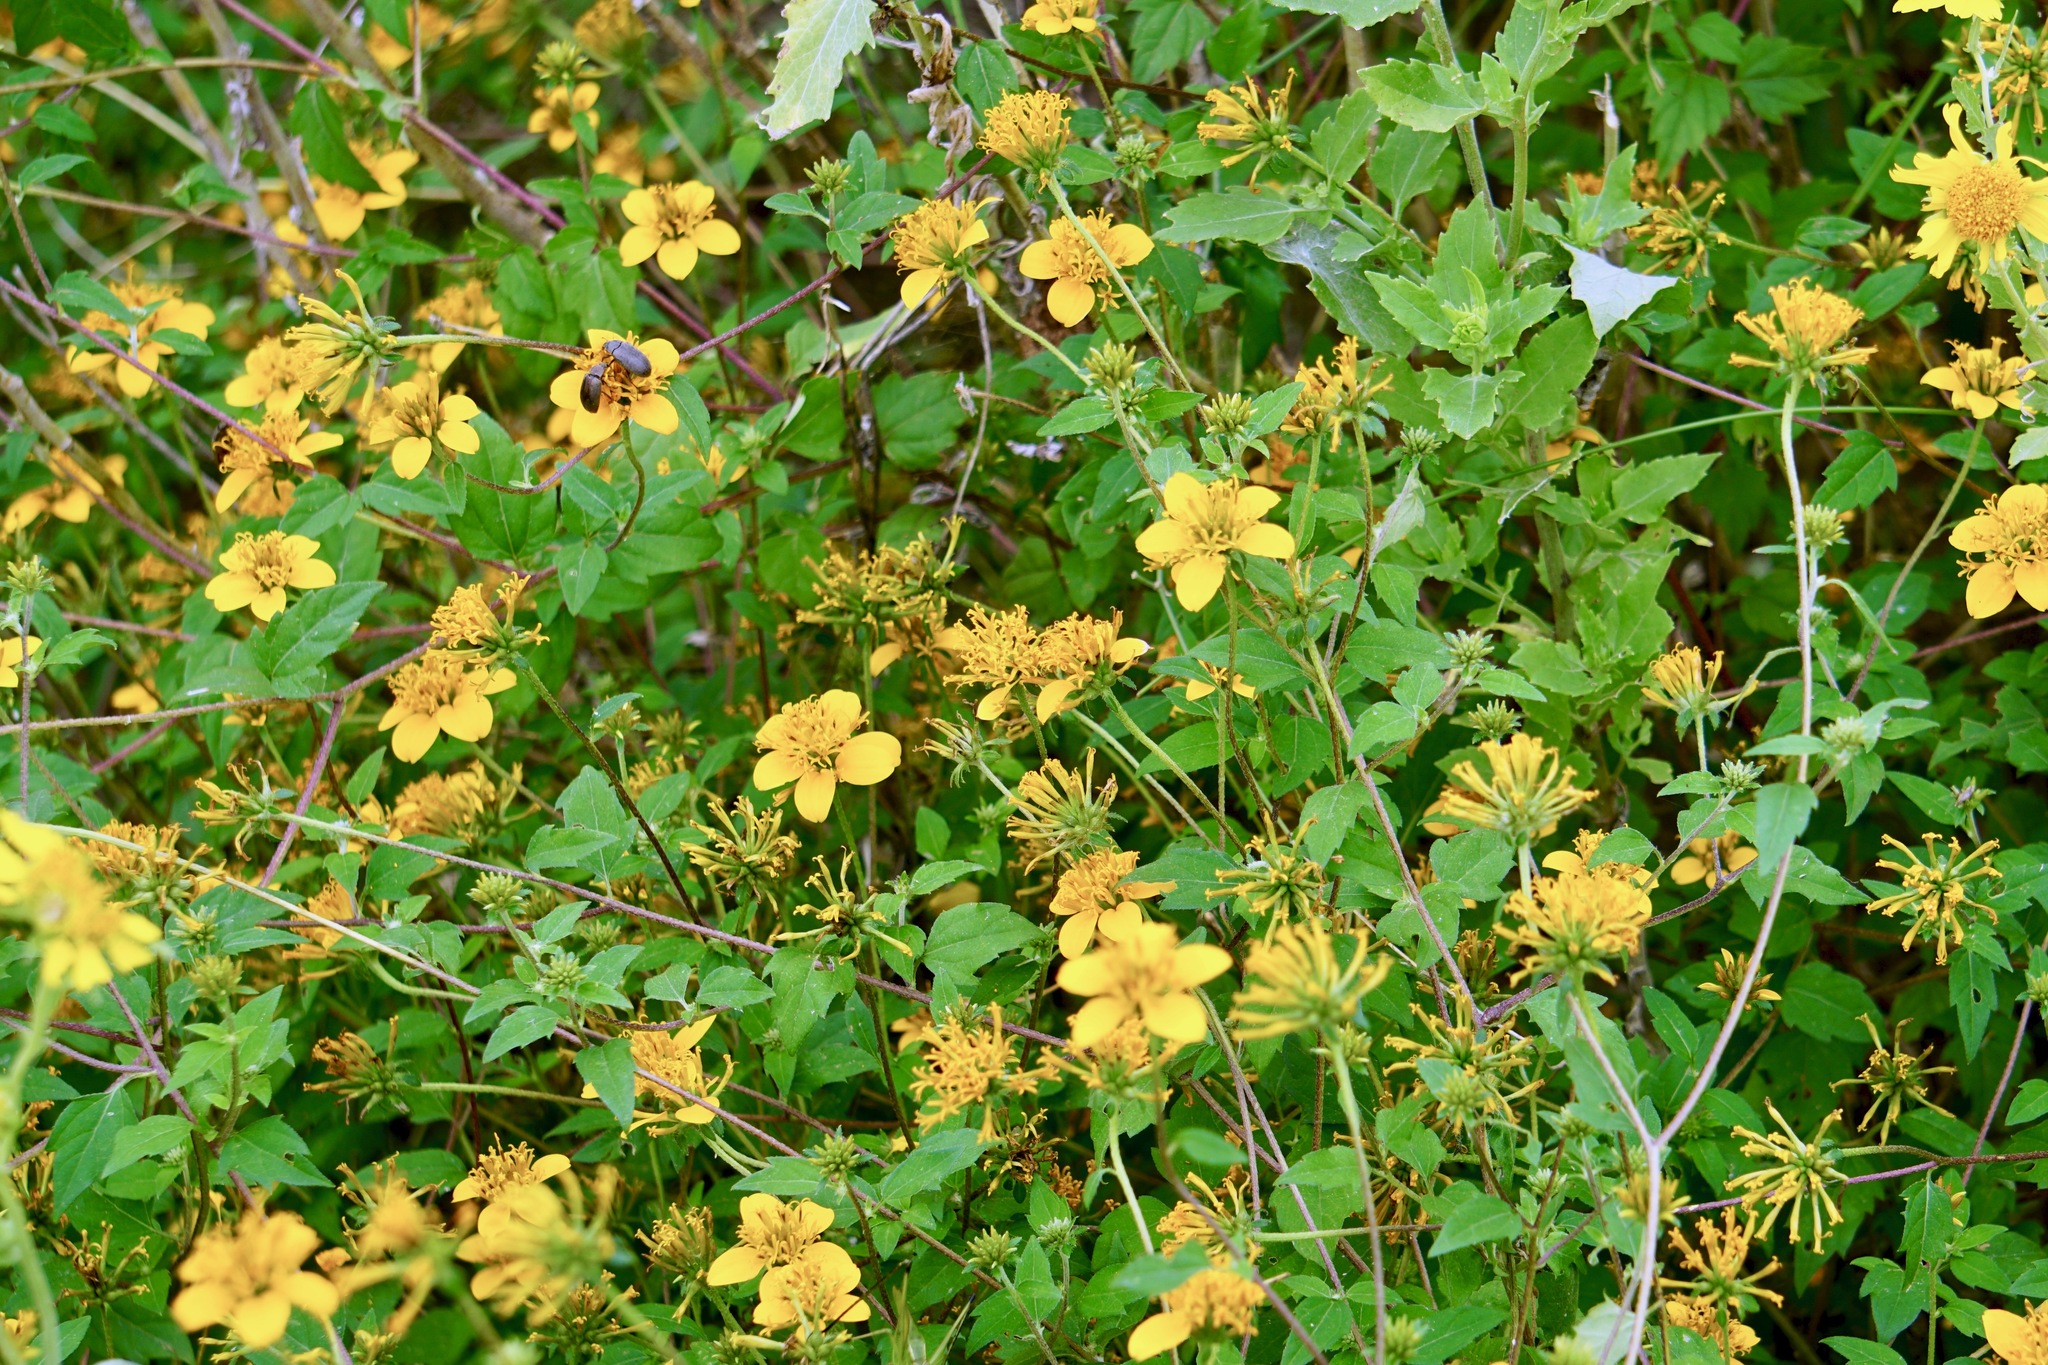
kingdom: Plantae
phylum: Tracheophyta
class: Magnoliopsida
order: Asterales
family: Asteraceae
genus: Sclerocarpus
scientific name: Sclerocarpus uniserialis
